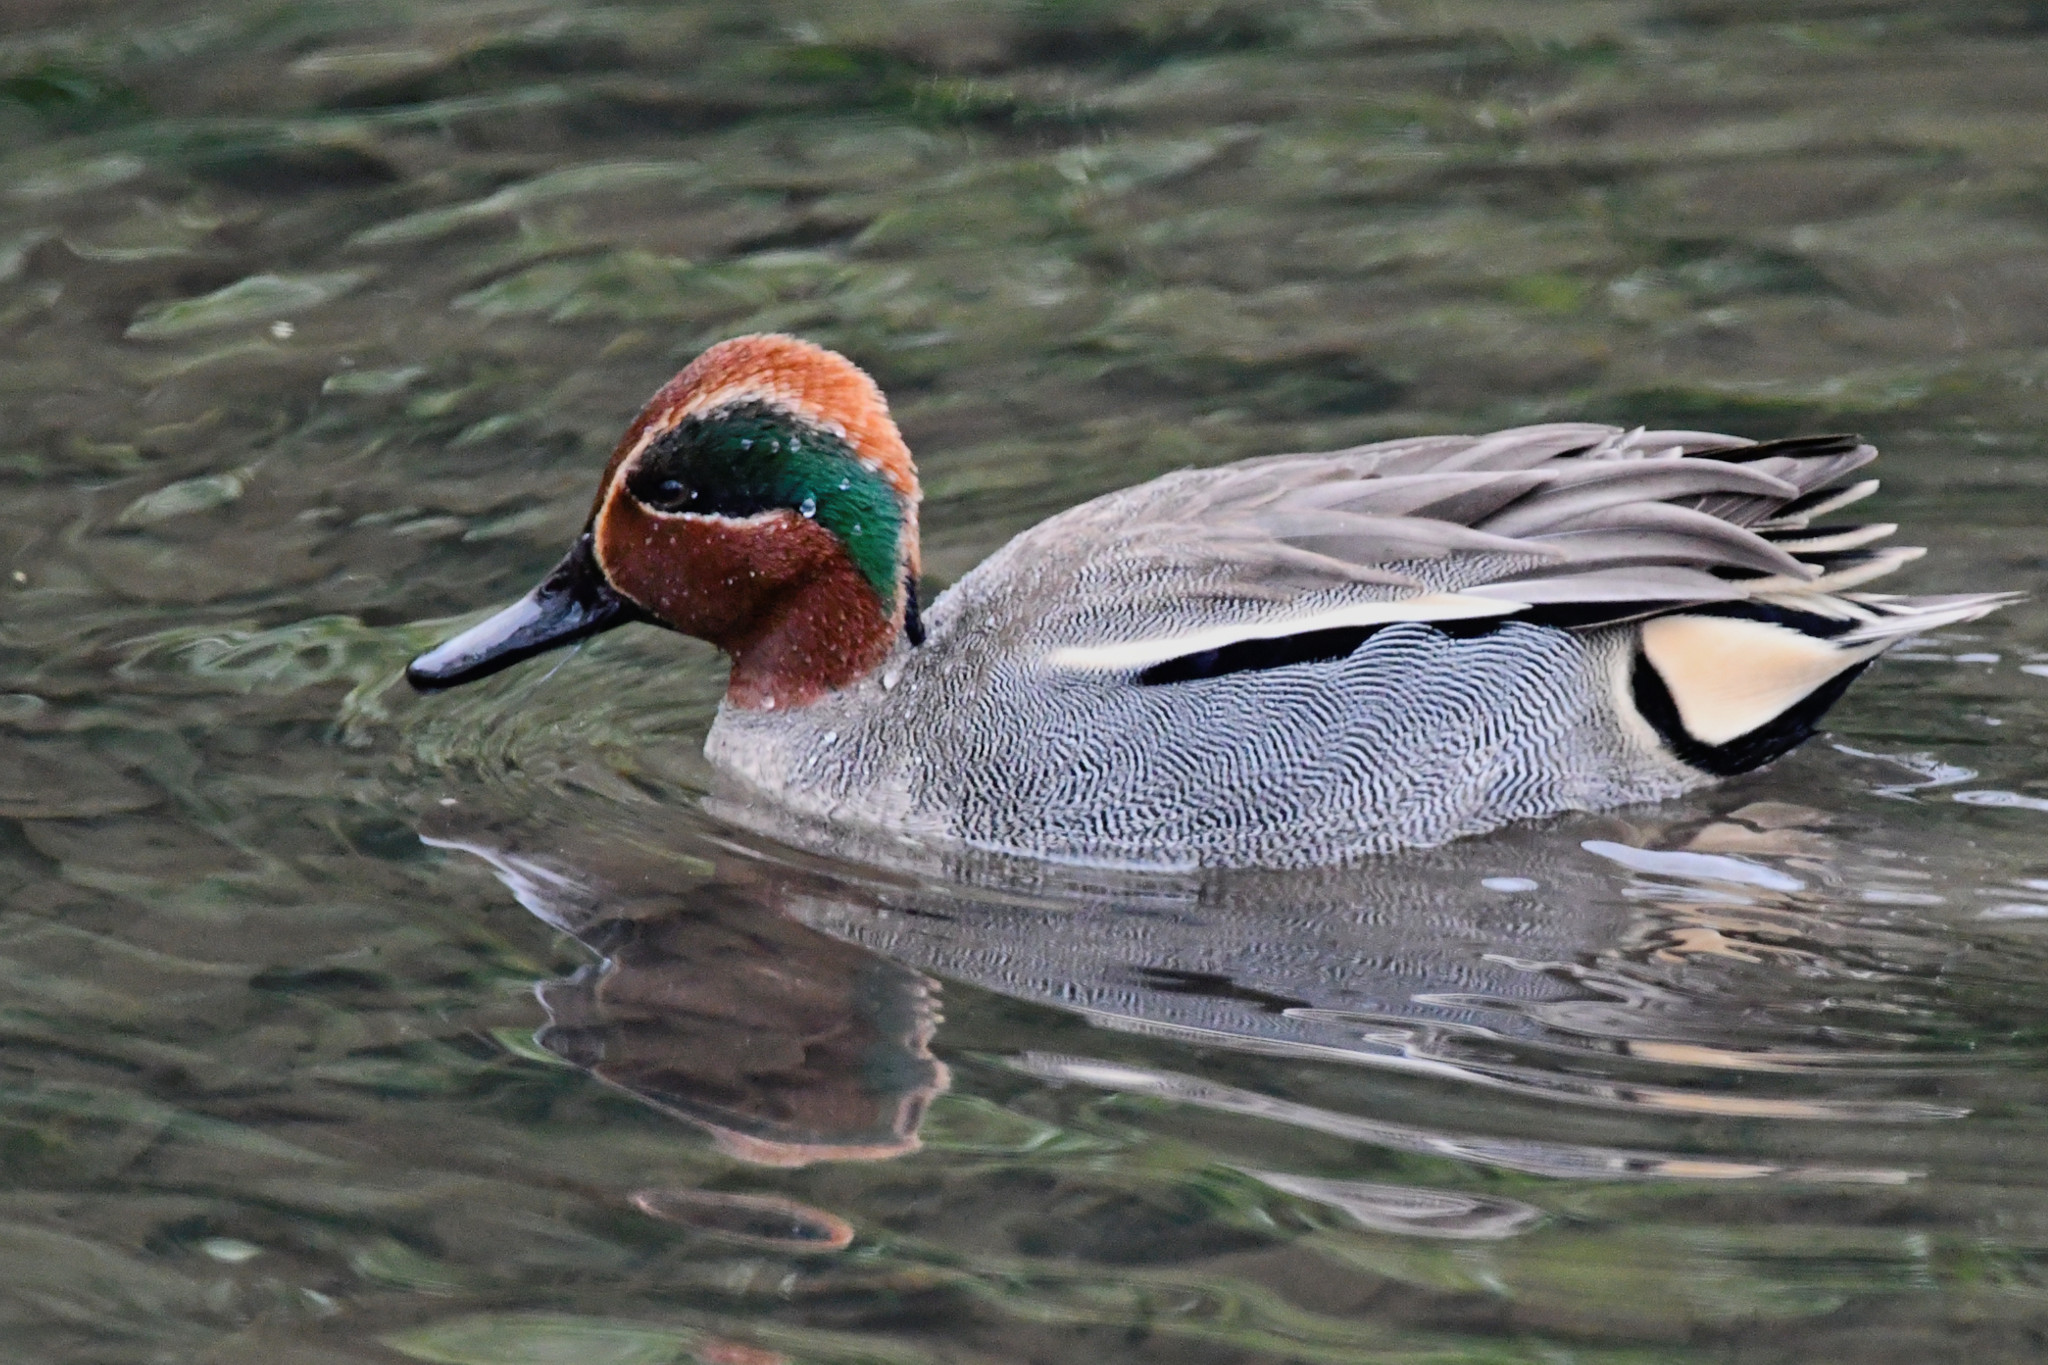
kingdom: Animalia
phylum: Chordata
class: Aves
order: Anseriformes
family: Anatidae
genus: Anas
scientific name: Anas crecca
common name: Eurasian teal
